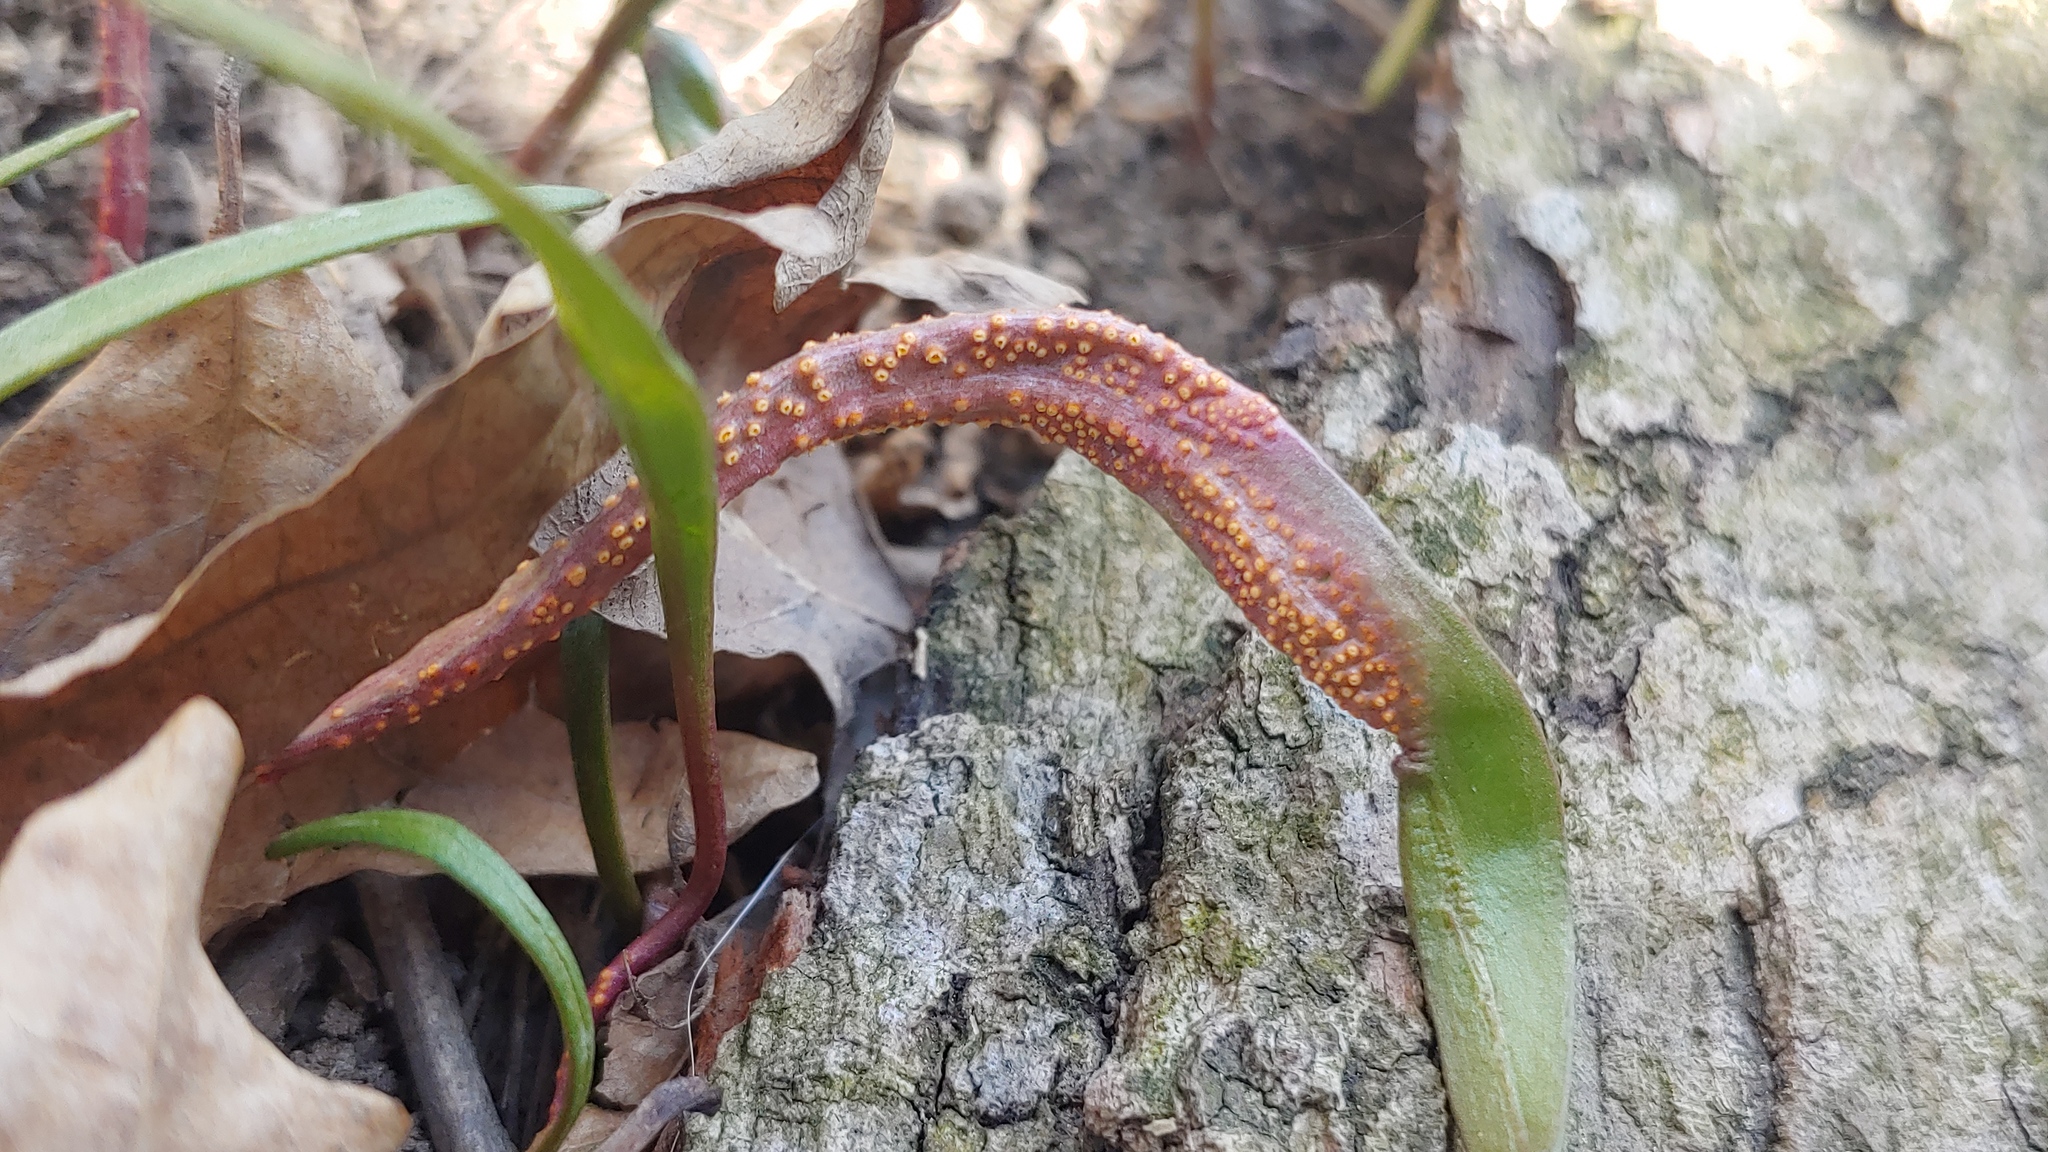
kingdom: Fungi
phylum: Basidiomycota
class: Pucciniomycetes
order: Pucciniales
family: Pucciniaceae
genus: Puccinia
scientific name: Puccinia mariae-wilsoniae
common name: Spring beauty rust
